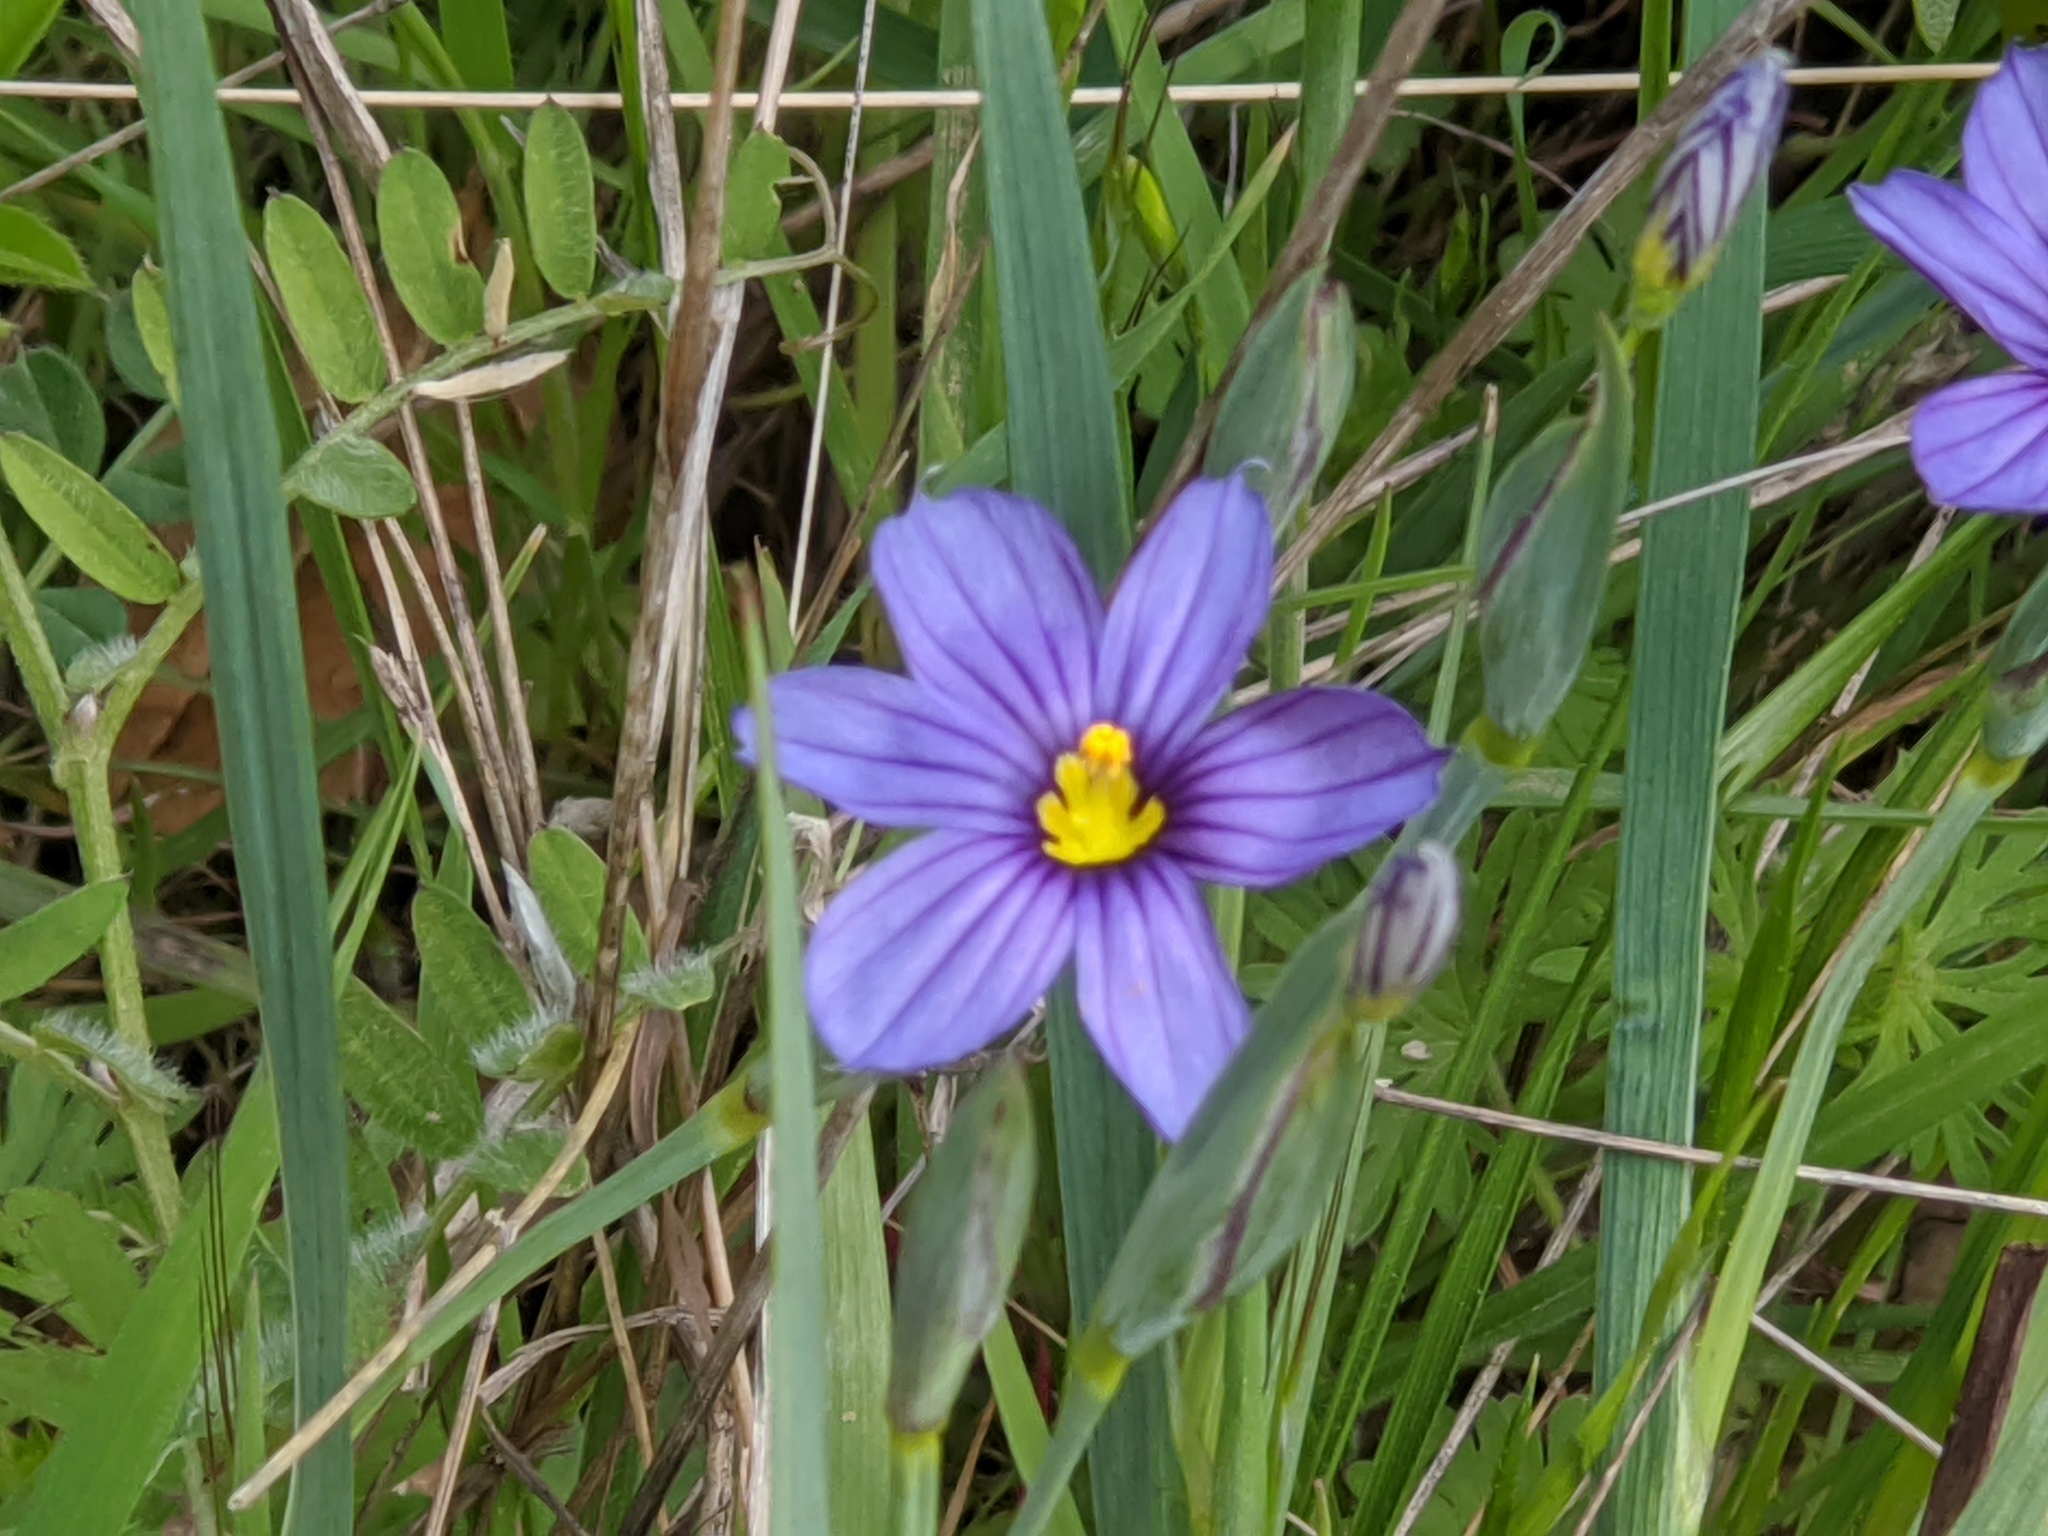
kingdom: Plantae
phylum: Tracheophyta
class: Liliopsida
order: Asparagales
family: Iridaceae
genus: Sisyrinchium
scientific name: Sisyrinchium bellum
